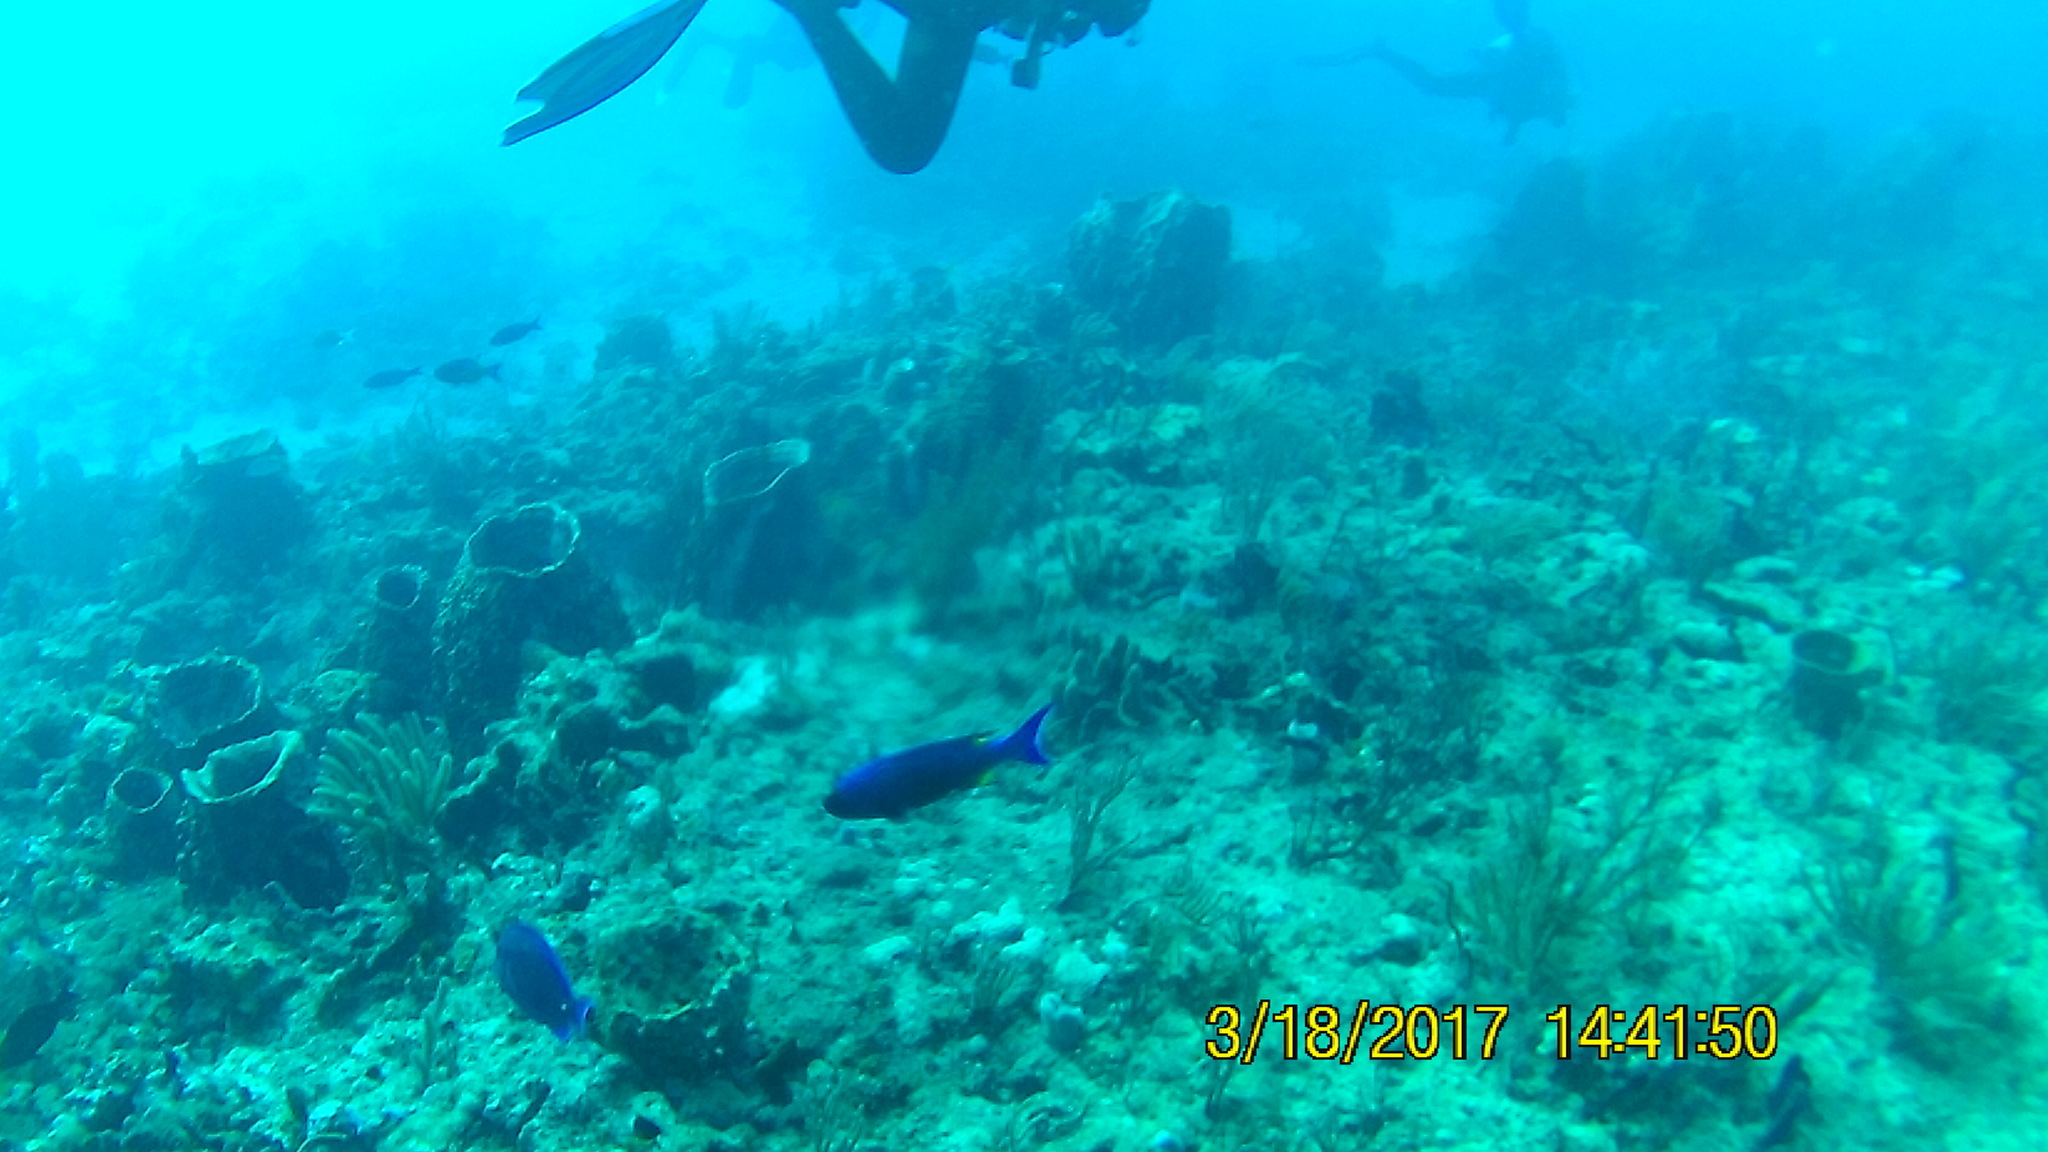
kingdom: Animalia
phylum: Chordata
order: Perciformes
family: Labridae
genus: Bodianus
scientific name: Bodianus
